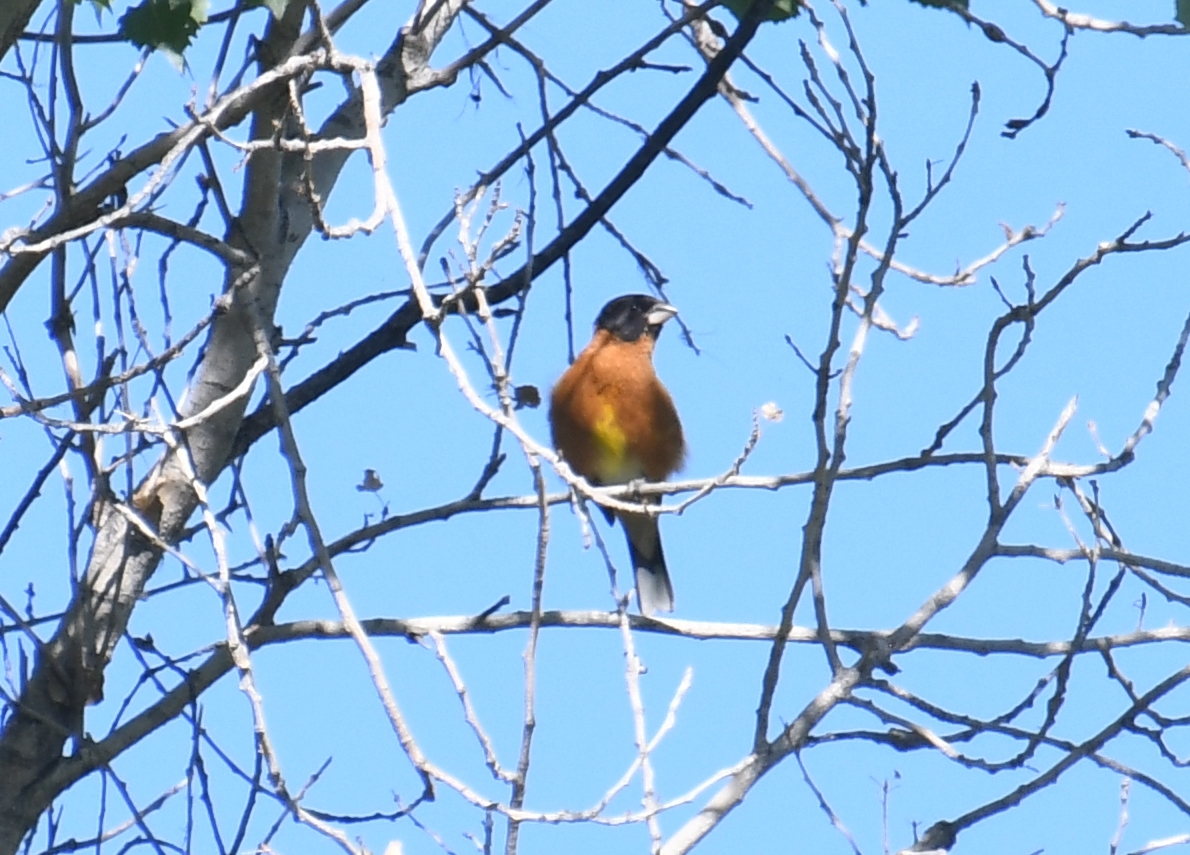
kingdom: Animalia
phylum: Chordata
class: Aves
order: Passeriformes
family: Cardinalidae
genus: Pheucticus
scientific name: Pheucticus melanocephalus
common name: Black-headed grosbeak
